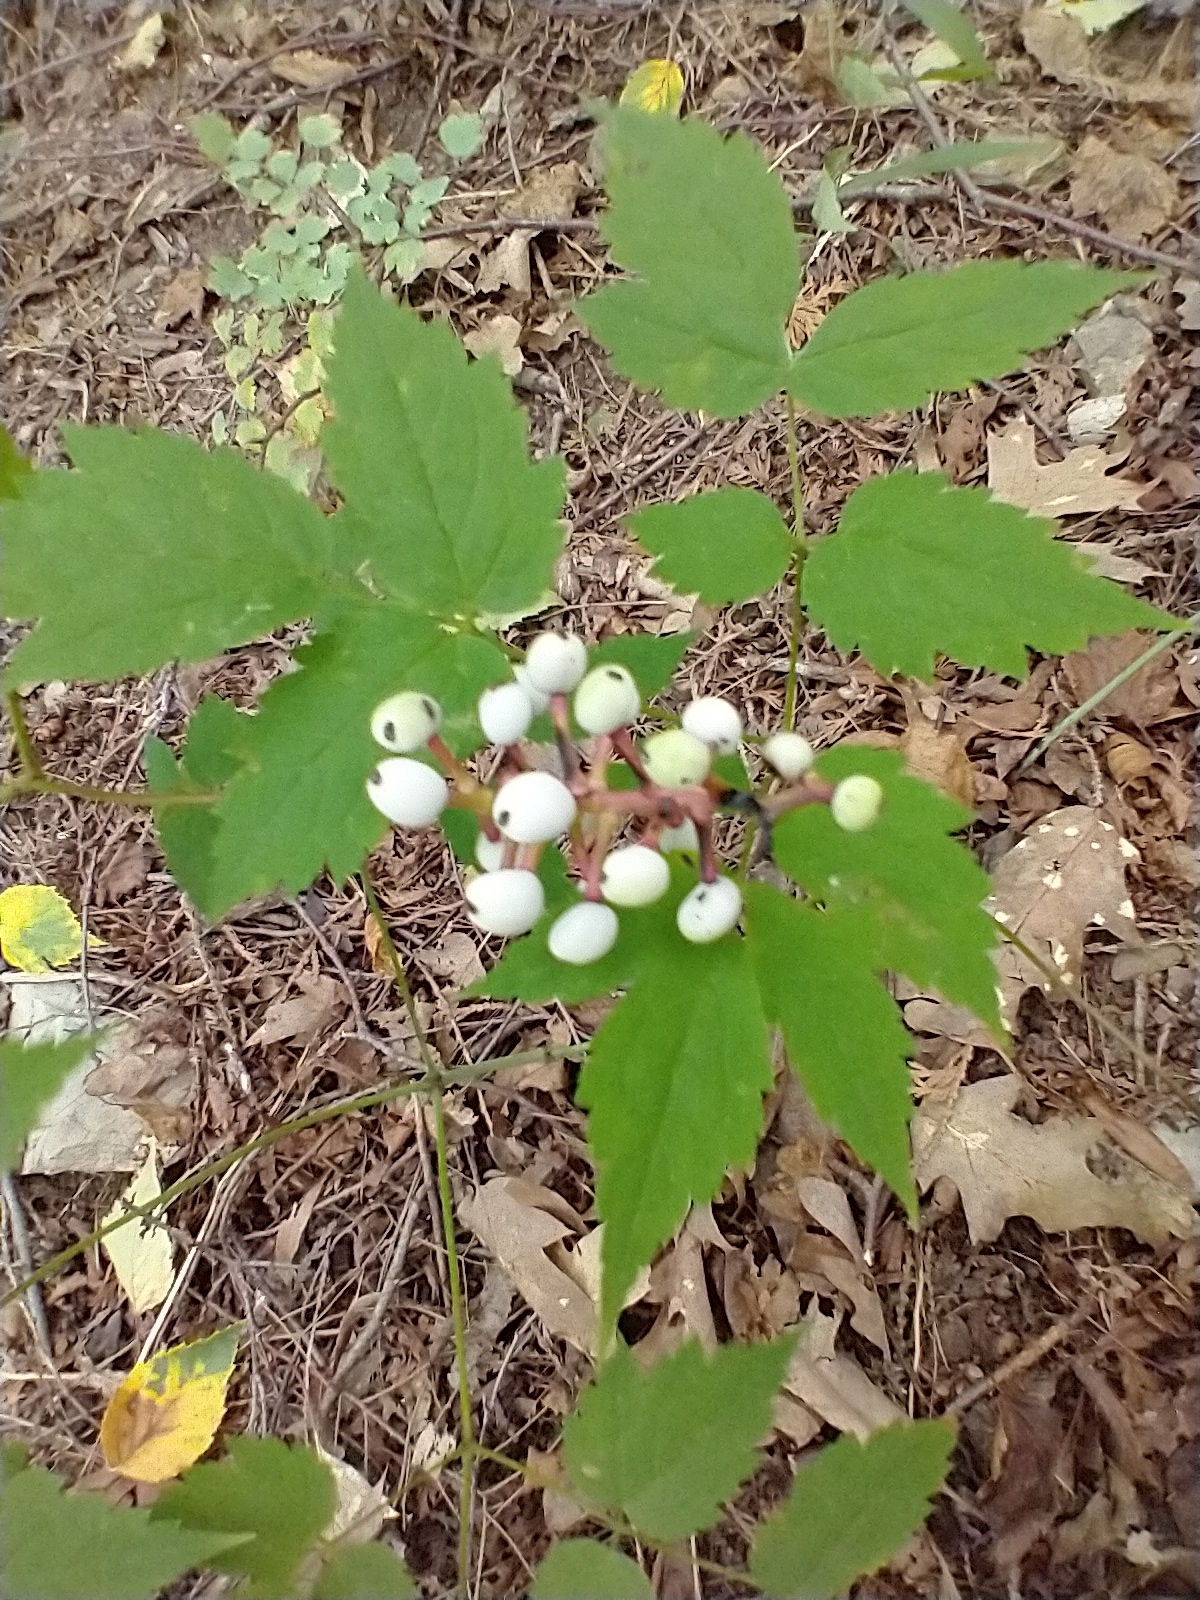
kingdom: Plantae
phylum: Tracheophyta
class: Magnoliopsida
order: Ranunculales
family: Ranunculaceae
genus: Actaea
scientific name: Actaea pachypoda
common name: Doll's-eyes
